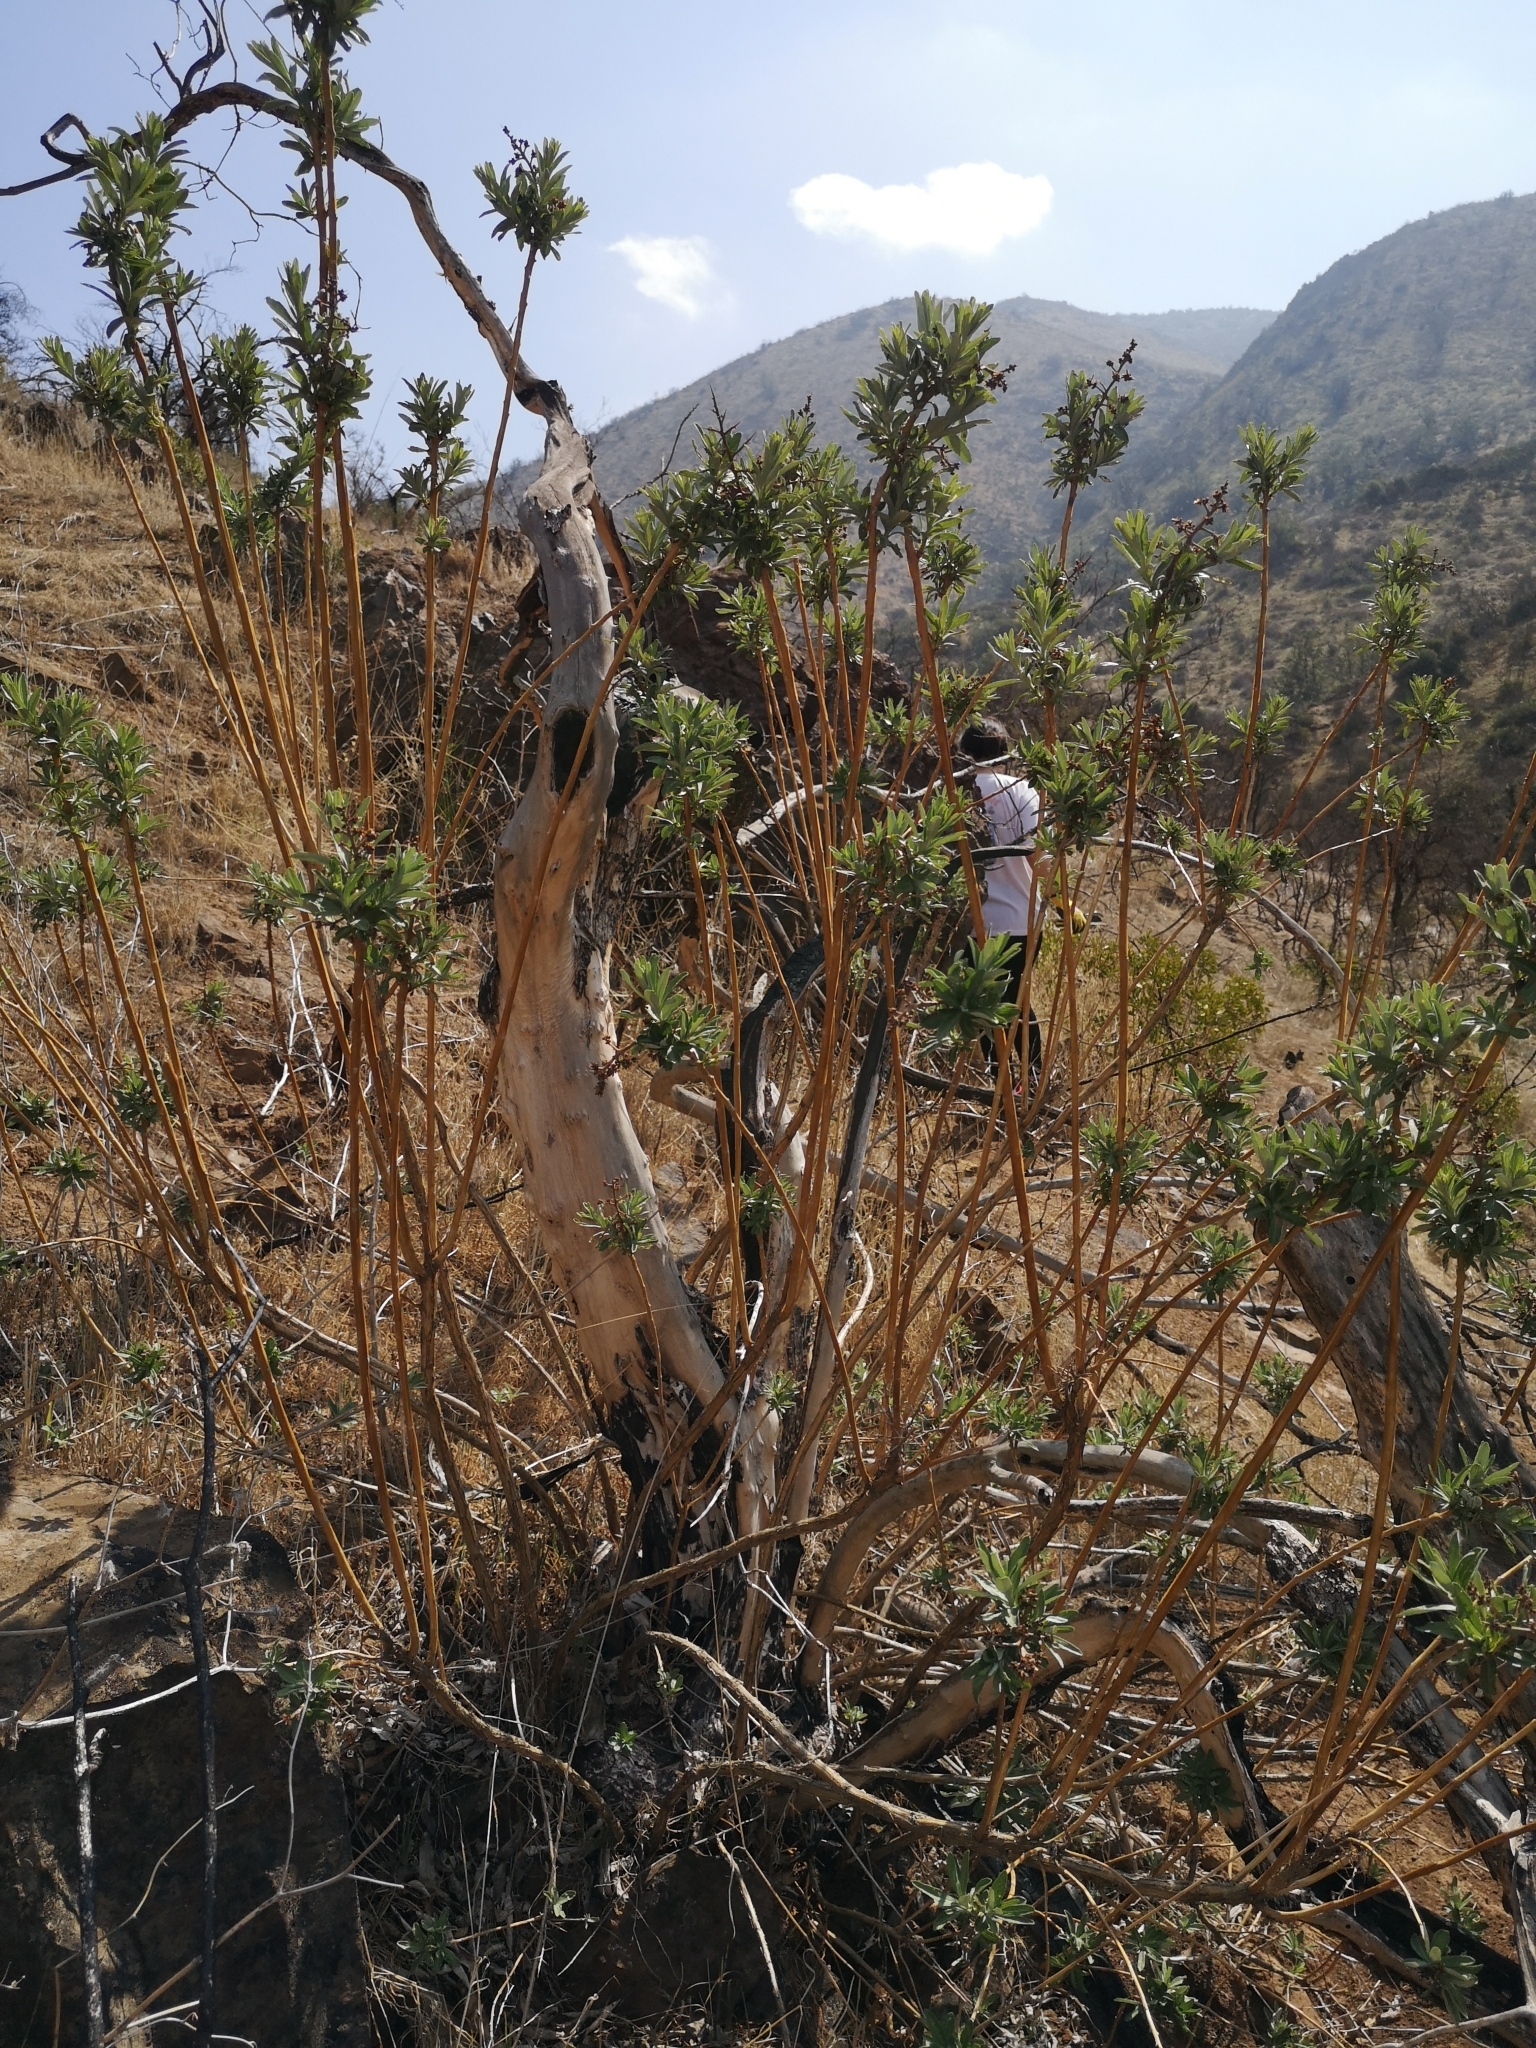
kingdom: Plantae
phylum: Tracheophyta
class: Magnoliopsida
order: Asterales
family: Asteraceae
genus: Proustia
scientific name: Proustia cuneifolia
